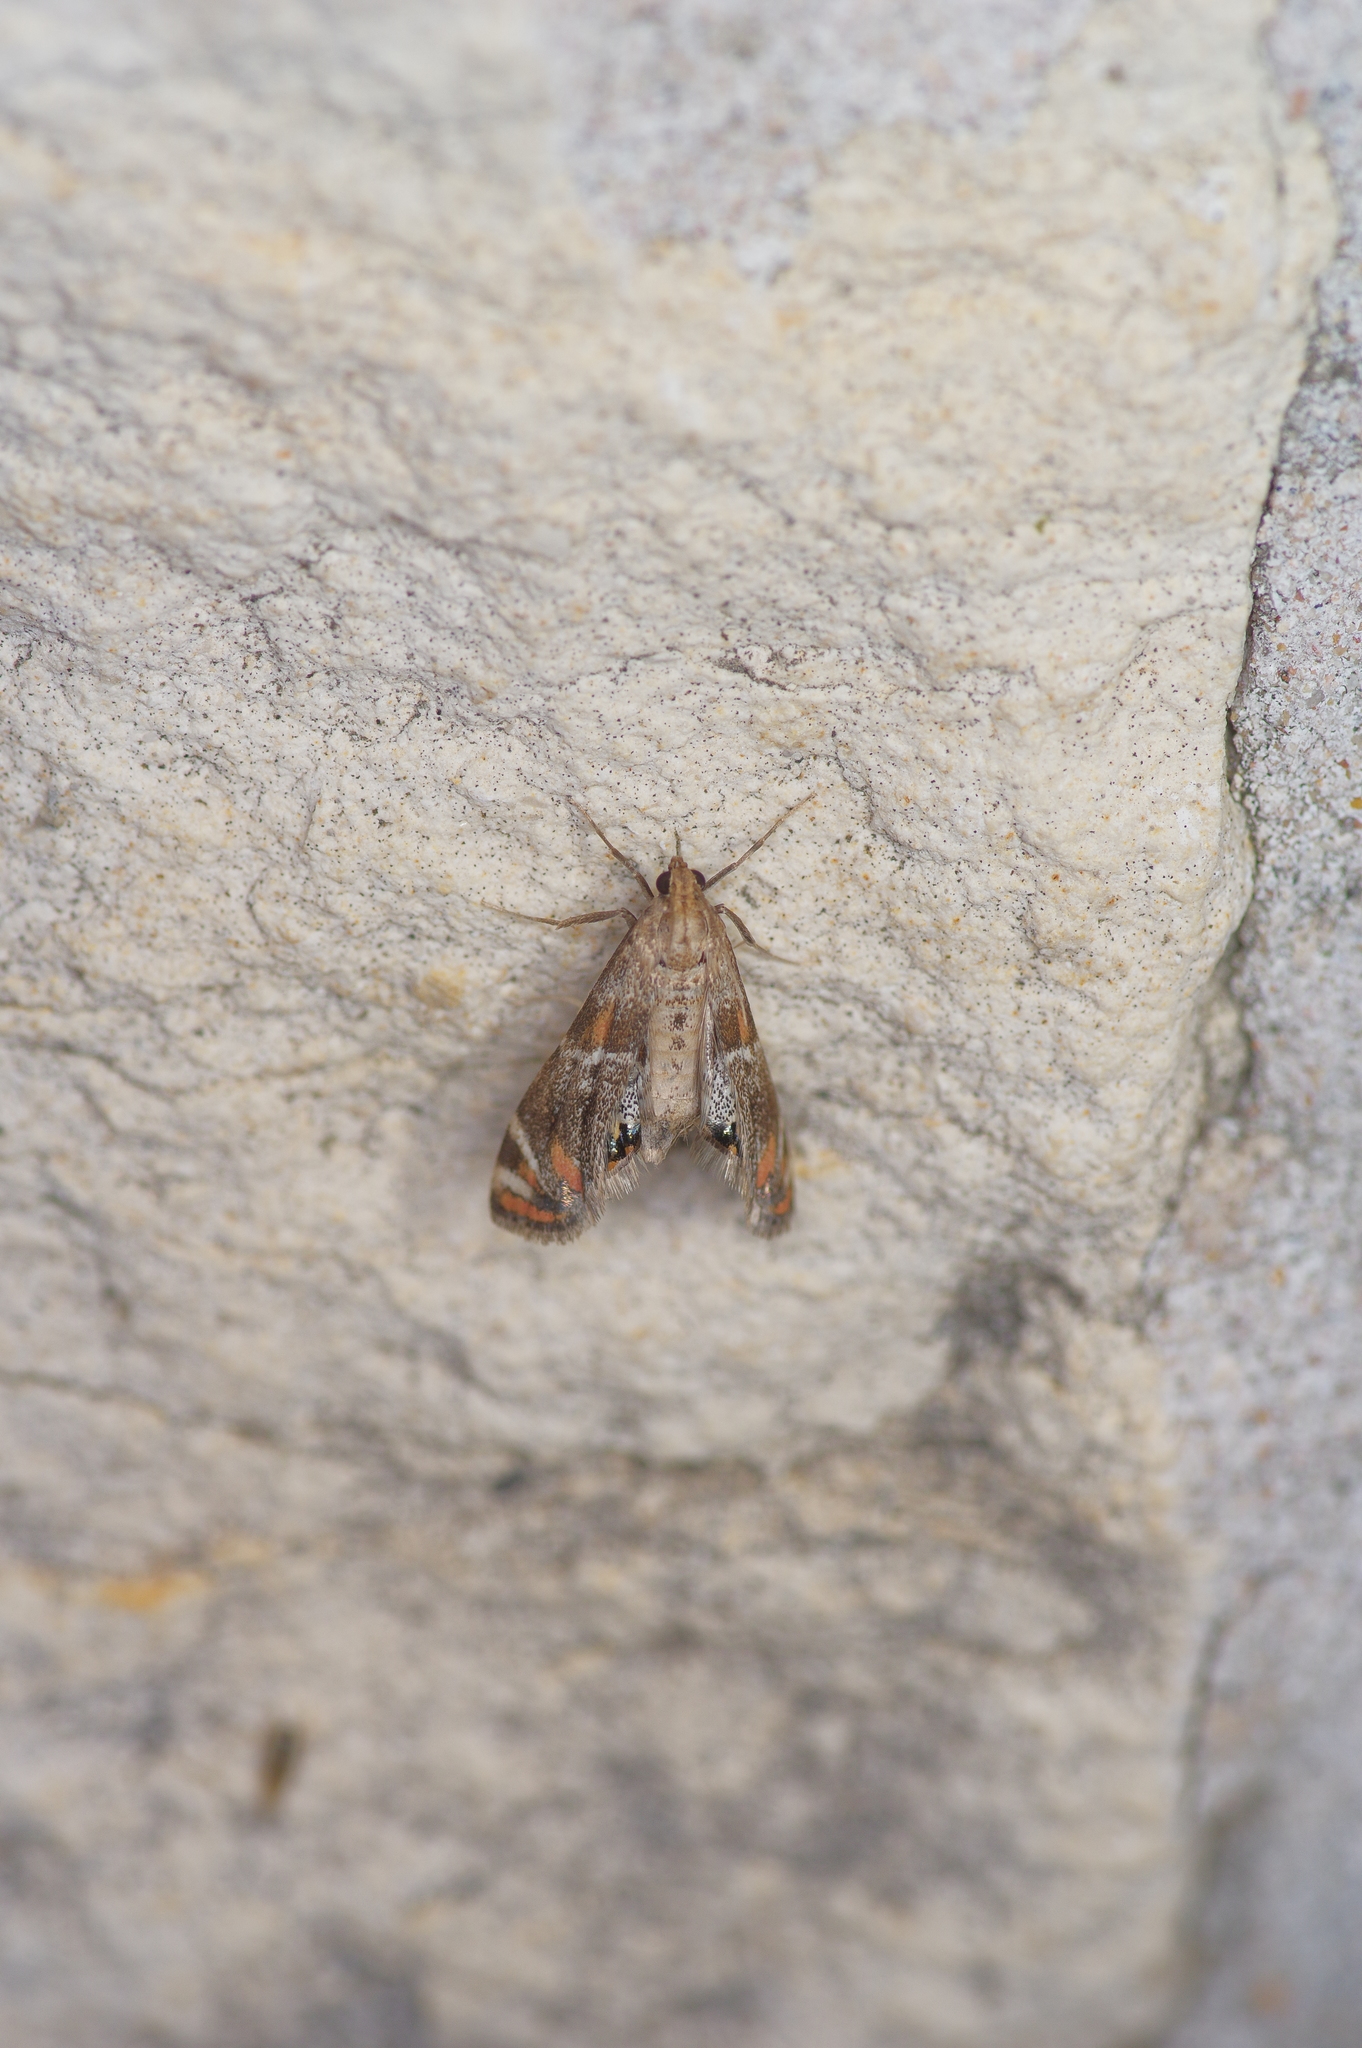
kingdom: Animalia
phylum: Arthropoda
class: Insecta
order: Lepidoptera
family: Crambidae
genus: Petrophila
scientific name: Petrophila jaliscalis
